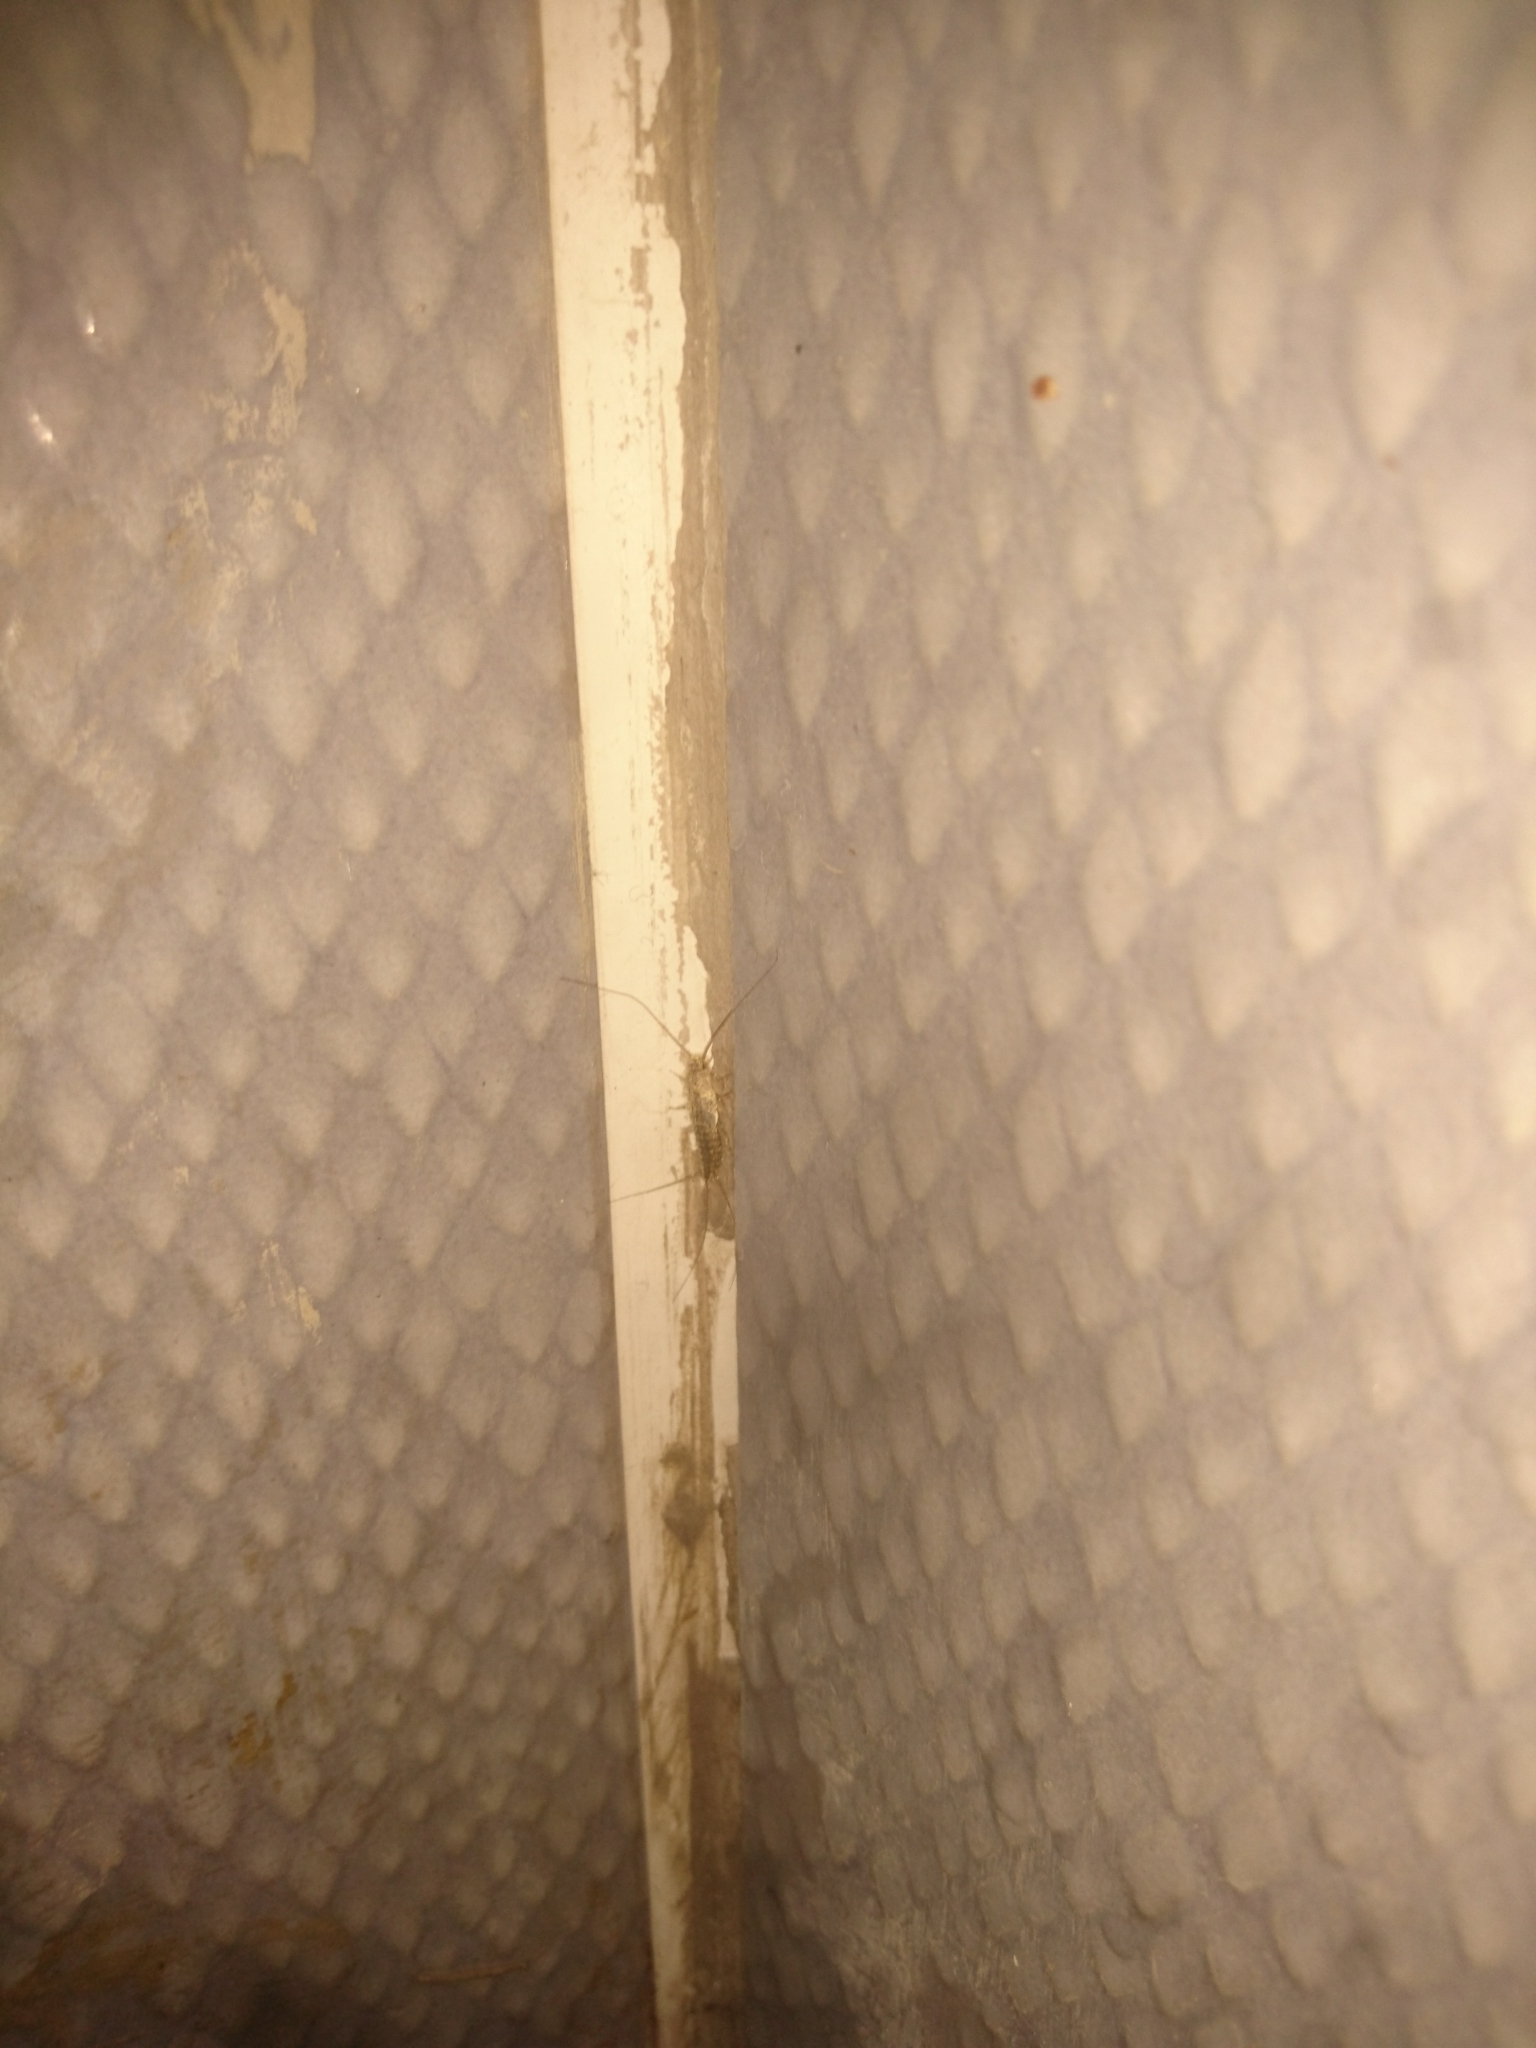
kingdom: Animalia
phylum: Arthropoda
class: Insecta
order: Zygentoma
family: Lepismatidae
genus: Ctenolepisma
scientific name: Ctenolepisma lineata
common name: Four-lined silverfish
